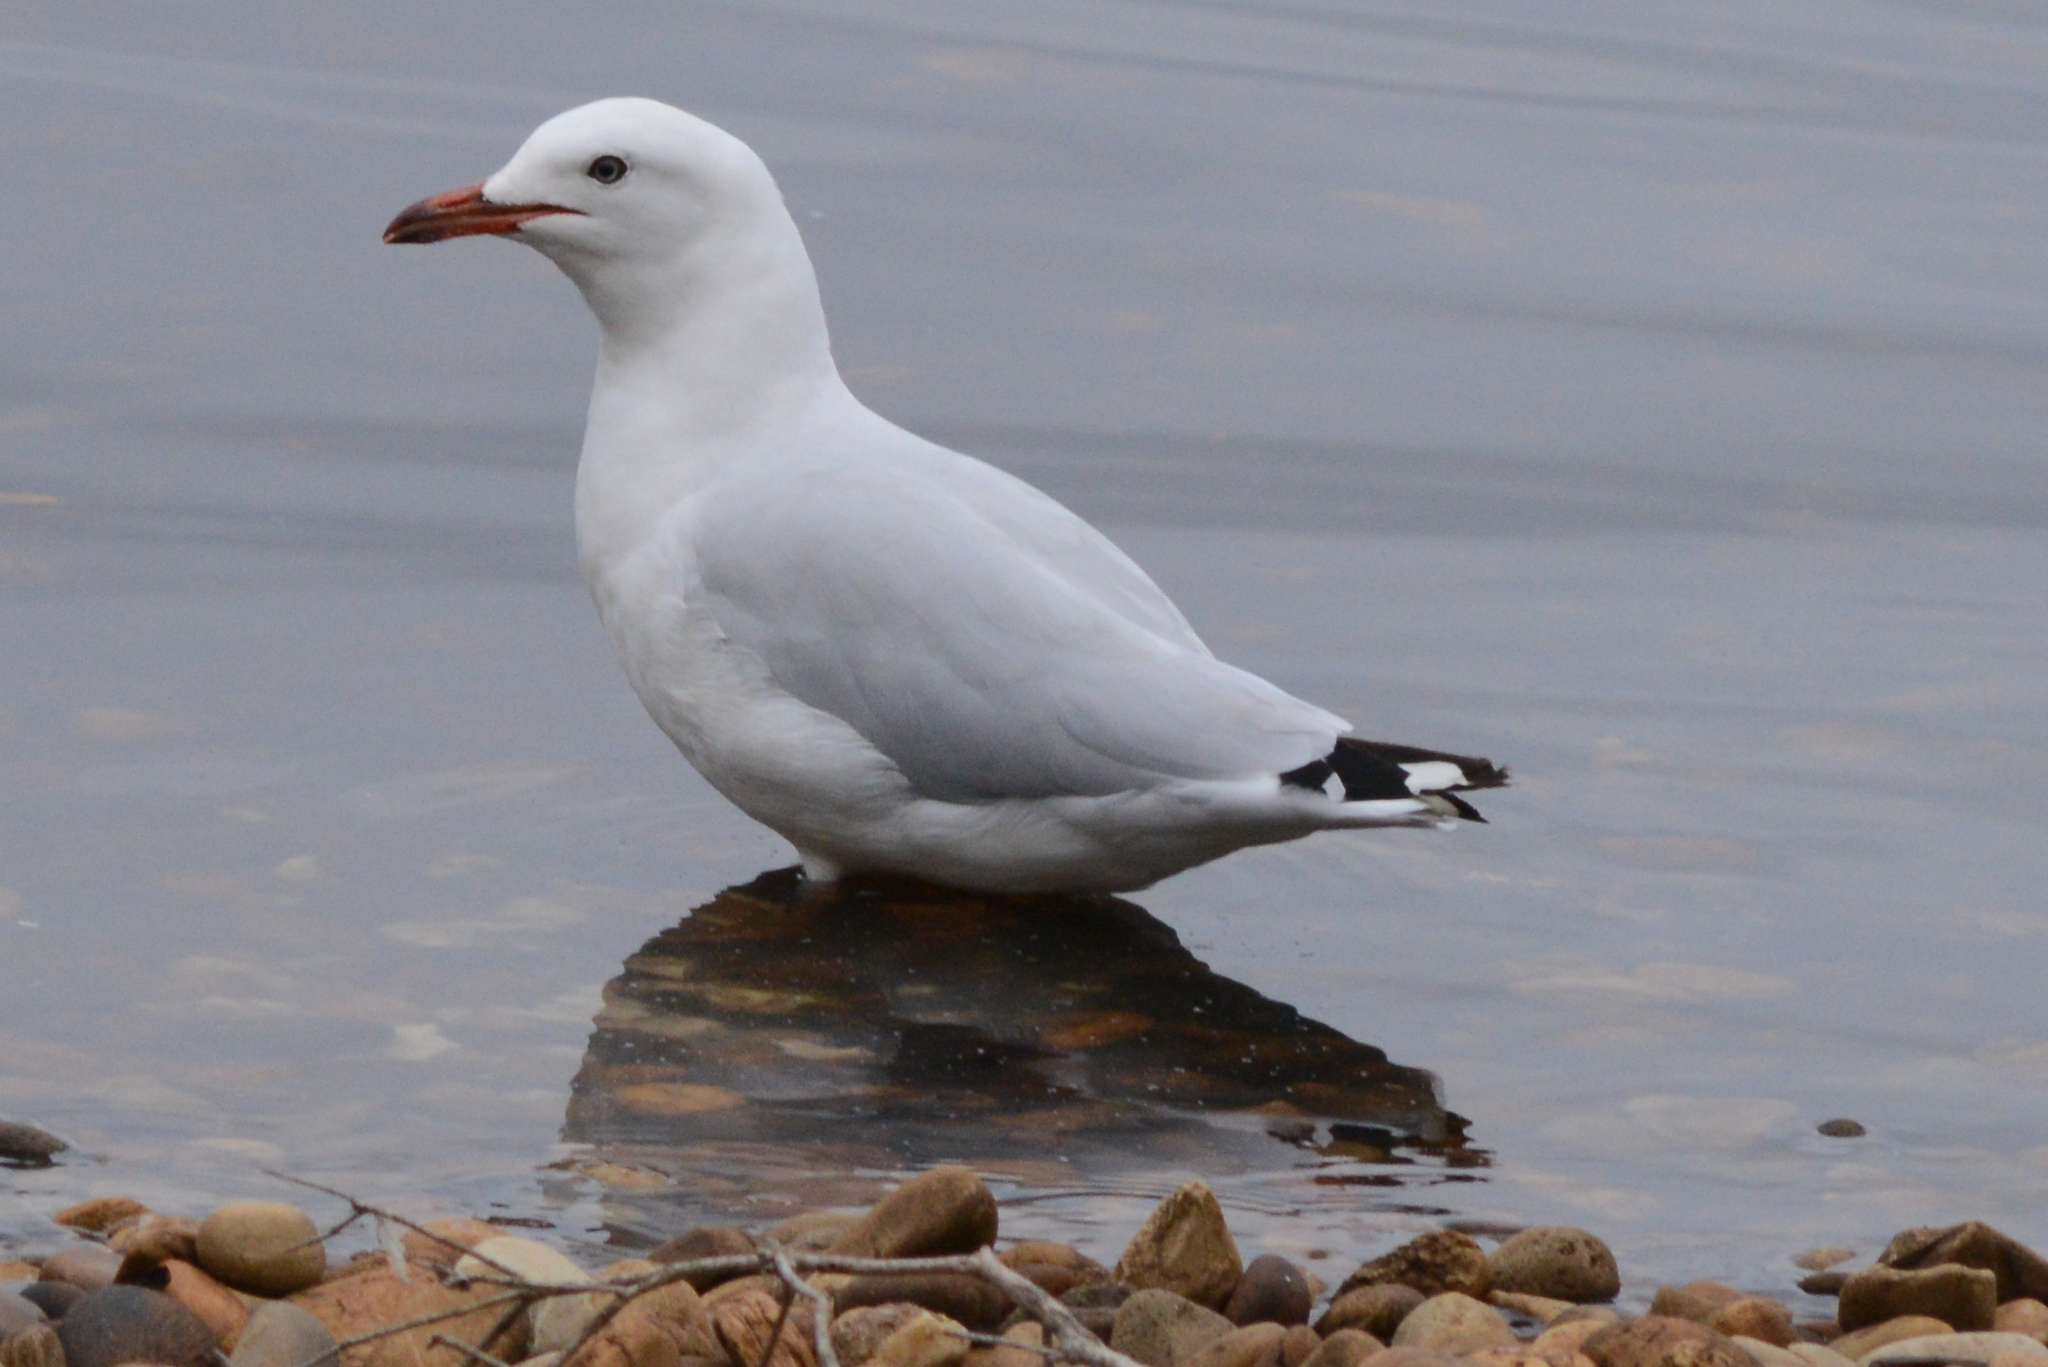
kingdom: Animalia
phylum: Chordata
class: Aves
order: Charadriiformes
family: Laridae
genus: Chroicocephalus
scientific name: Chroicocephalus novaehollandiae
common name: Silver gull
